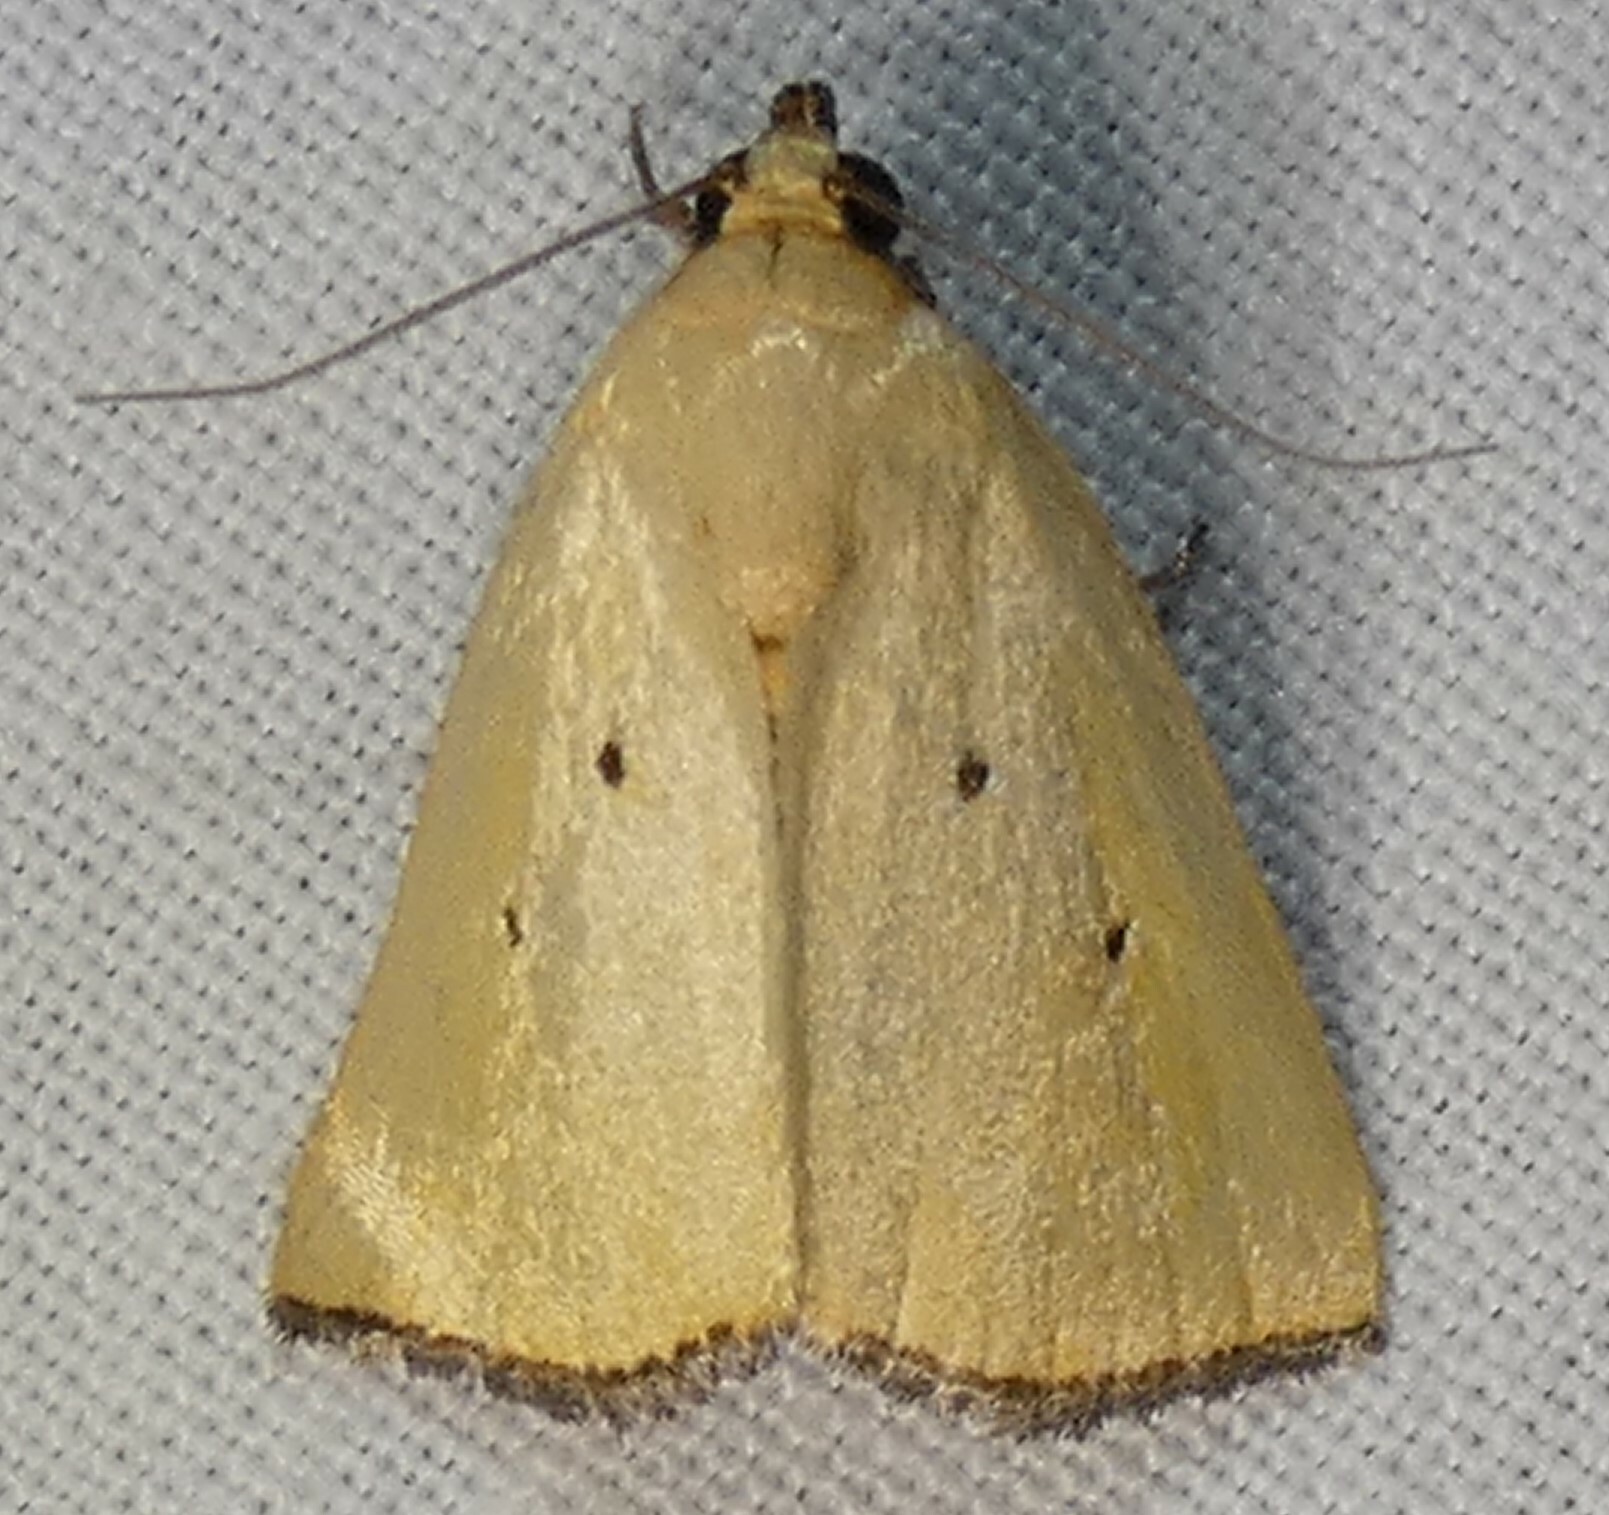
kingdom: Animalia
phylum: Arthropoda
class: Insecta
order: Lepidoptera
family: Noctuidae
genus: Marimatha
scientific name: Marimatha nigrofimbria
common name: Black-bordered lemon moth
